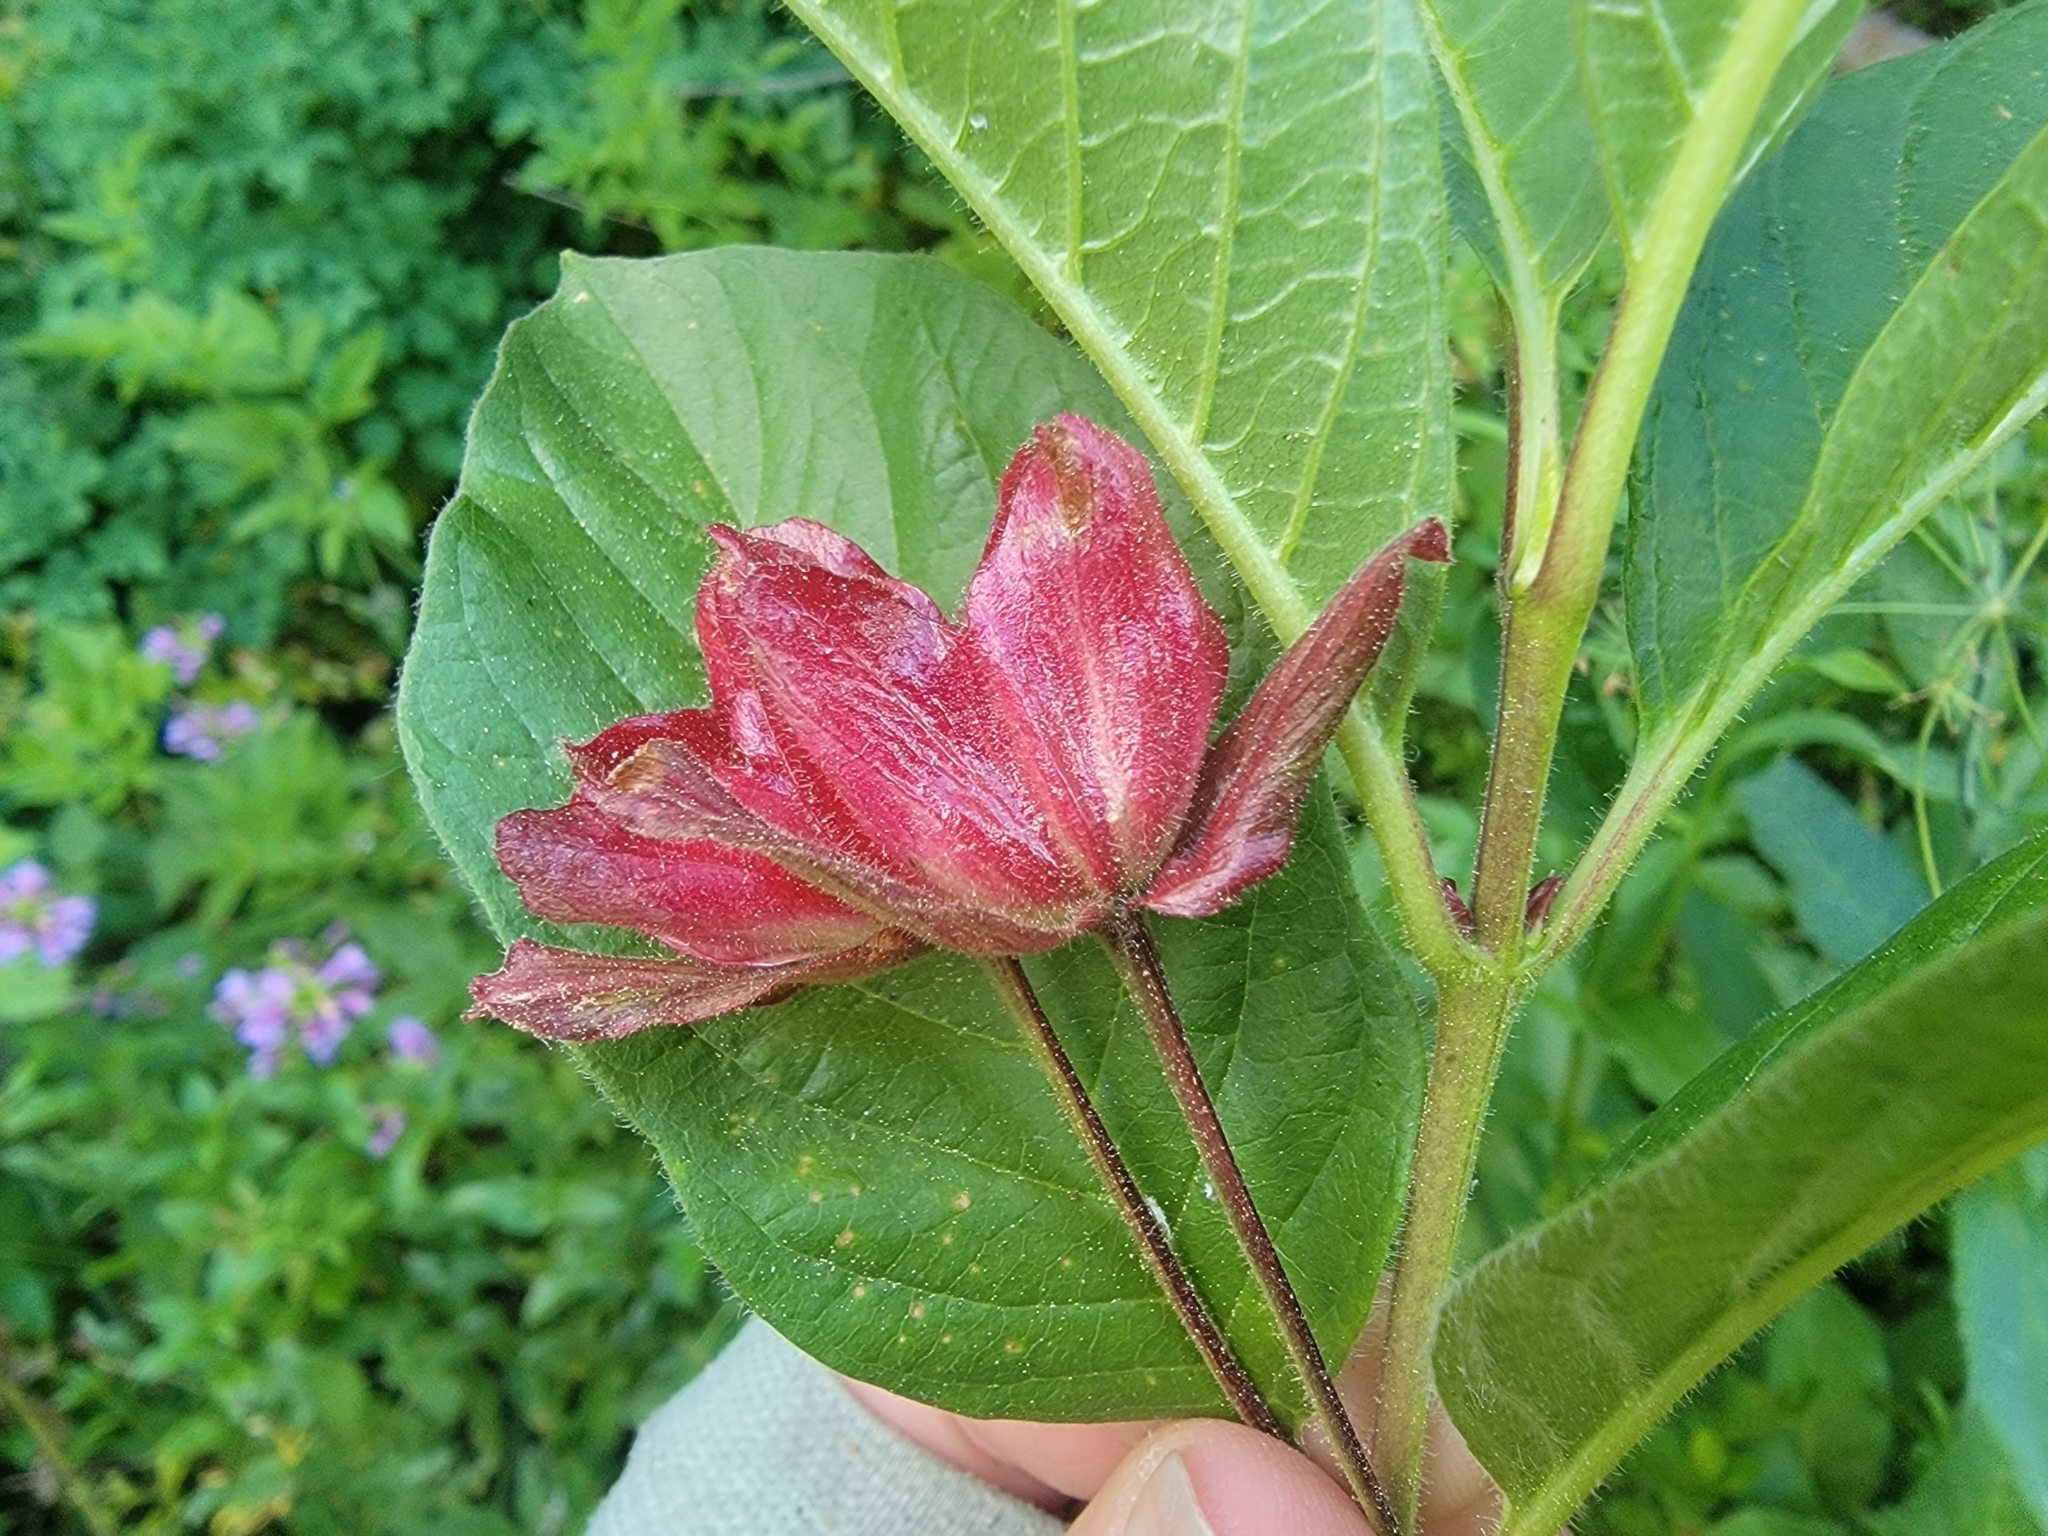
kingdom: Plantae
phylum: Tracheophyta
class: Magnoliopsida
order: Dipsacales
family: Caprifoliaceae
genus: Lonicera
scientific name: Lonicera involucrata
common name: Californian honeysuckle
